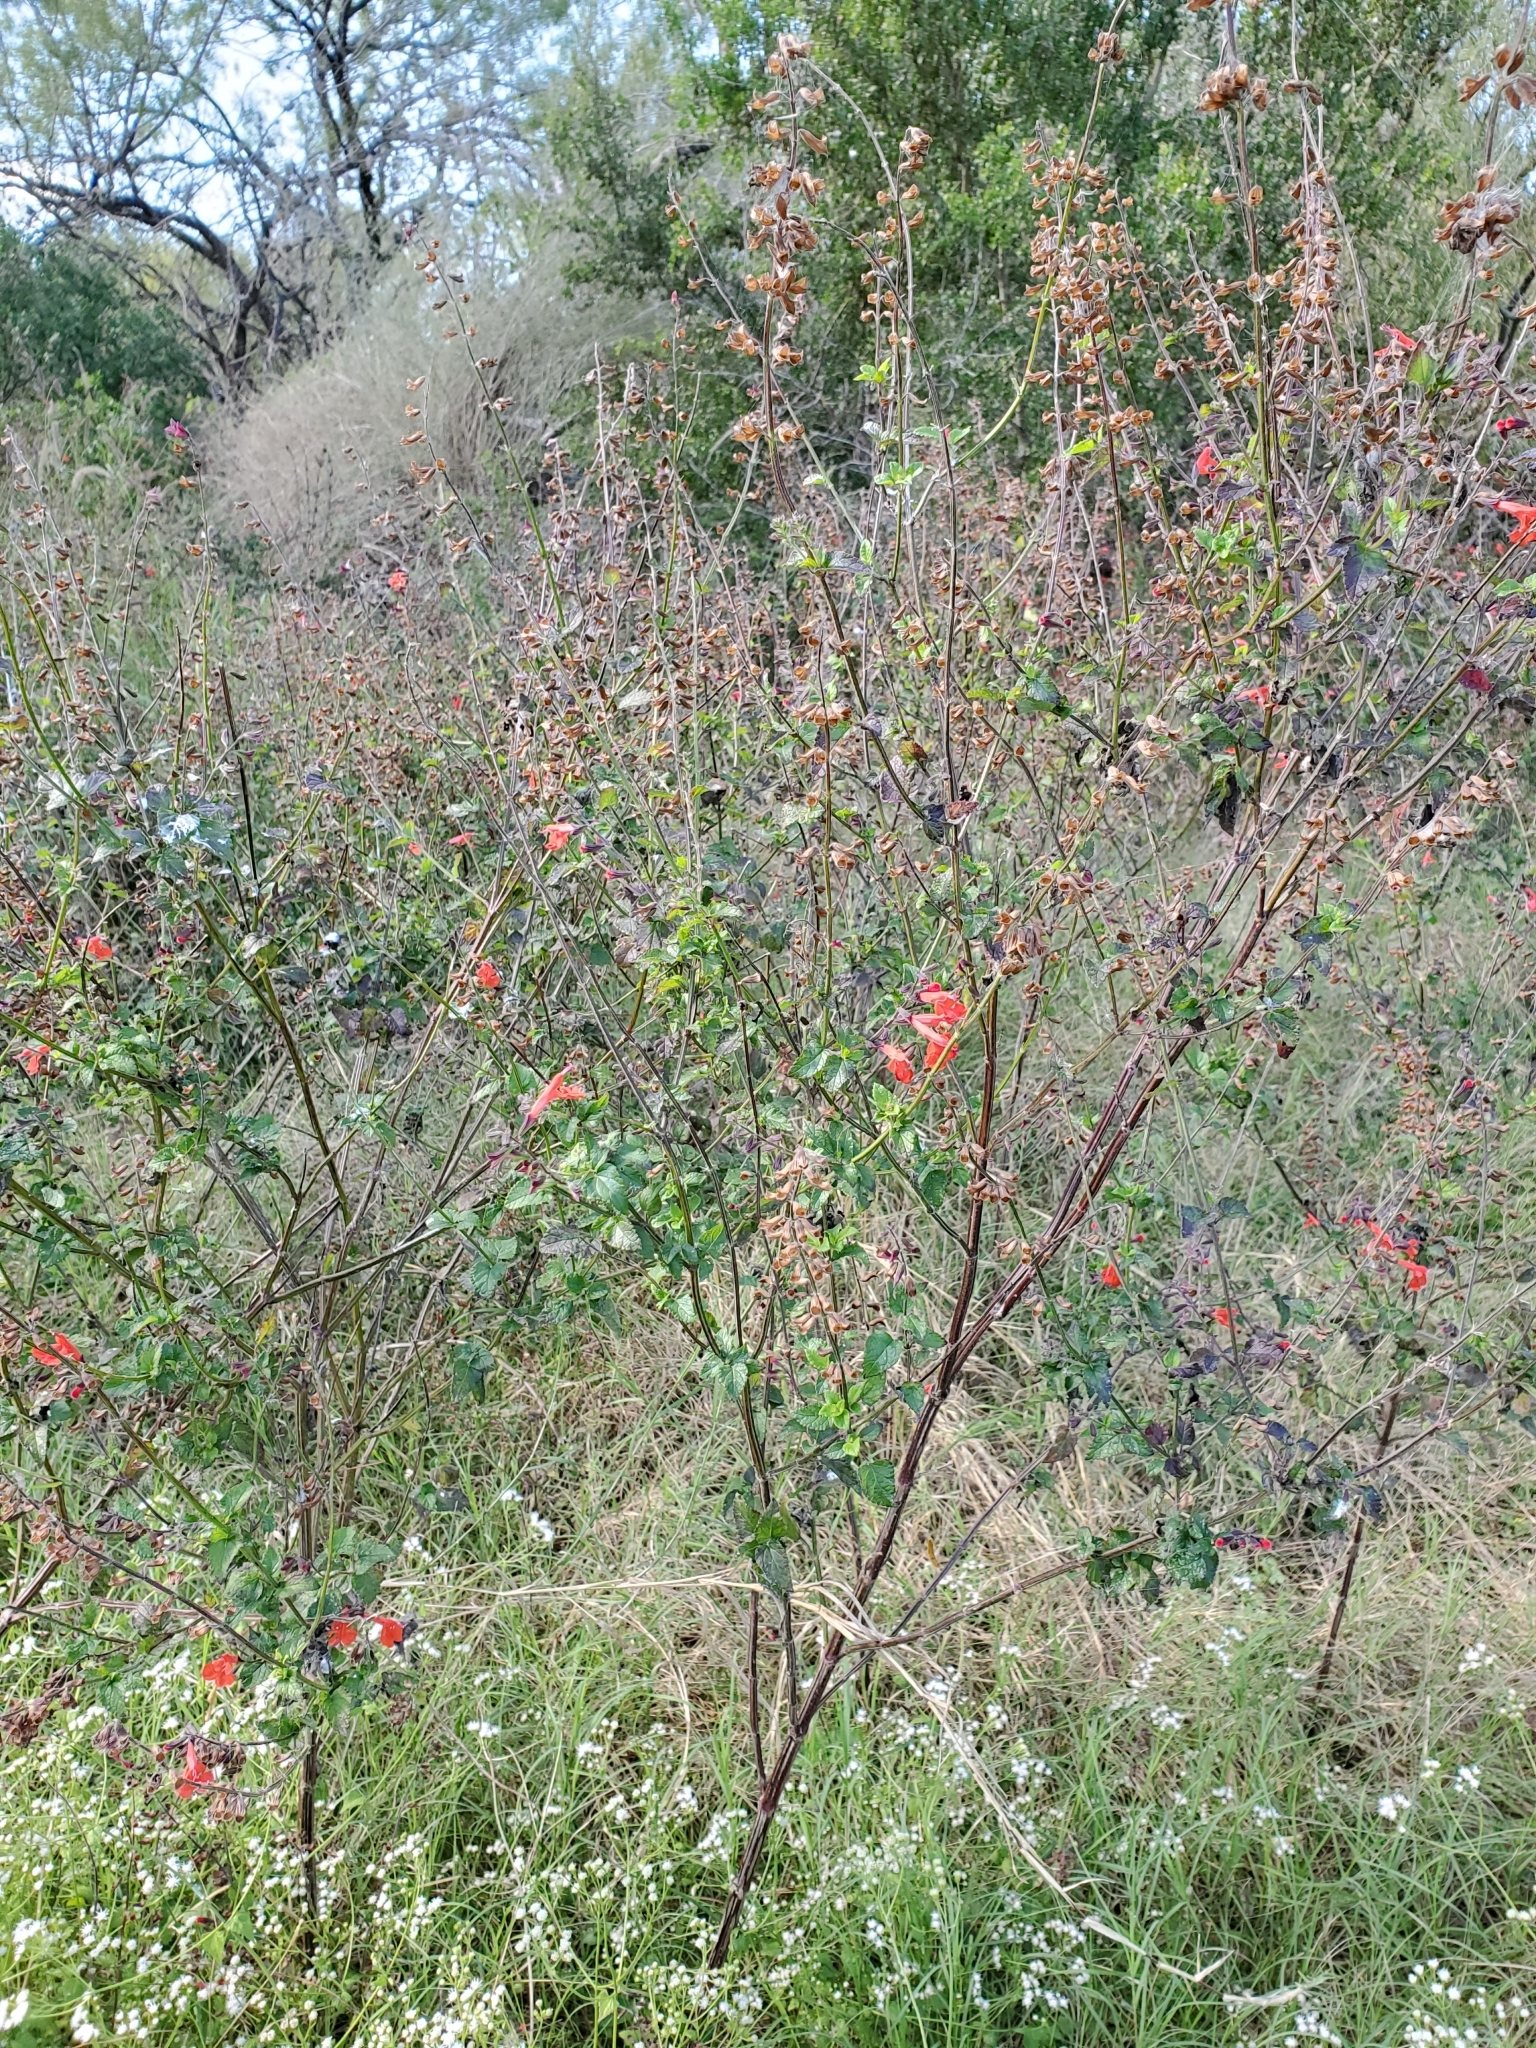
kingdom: Plantae
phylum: Tracheophyta
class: Magnoliopsida
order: Lamiales
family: Lamiaceae
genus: Salvia
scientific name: Salvia coccinea
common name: Blood sage
